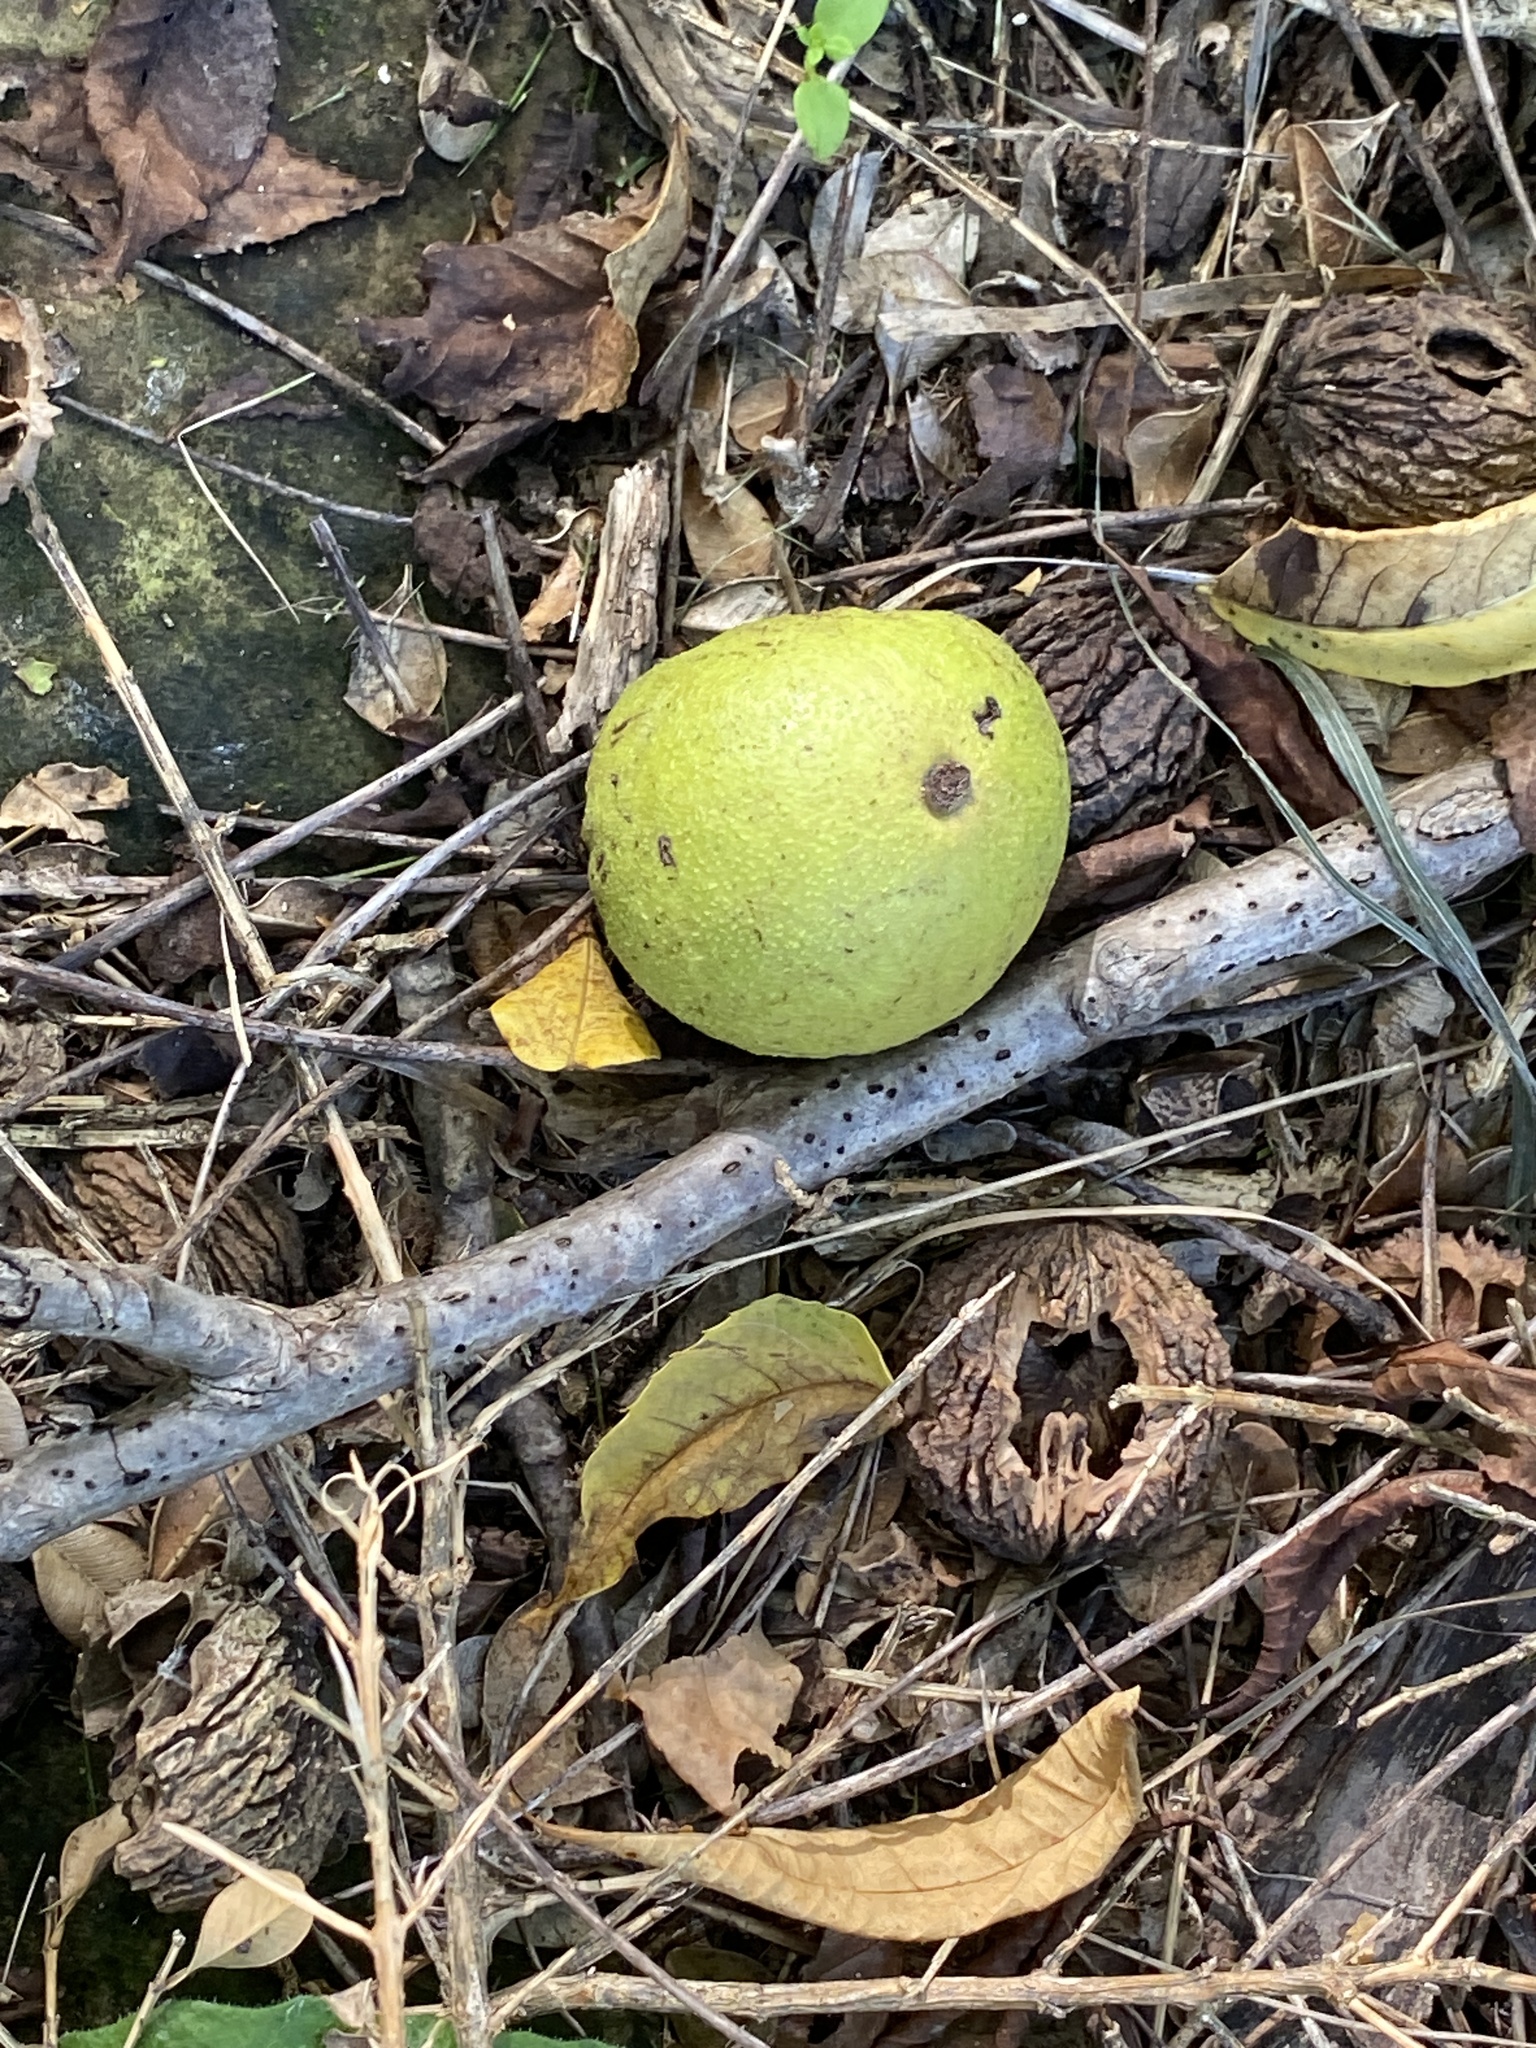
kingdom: Plantae
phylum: Tracheophyta
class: Magnoliopsida
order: Fagales
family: Juglandaceae
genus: Juglans
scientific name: Juglans nigra
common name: Black walnut
